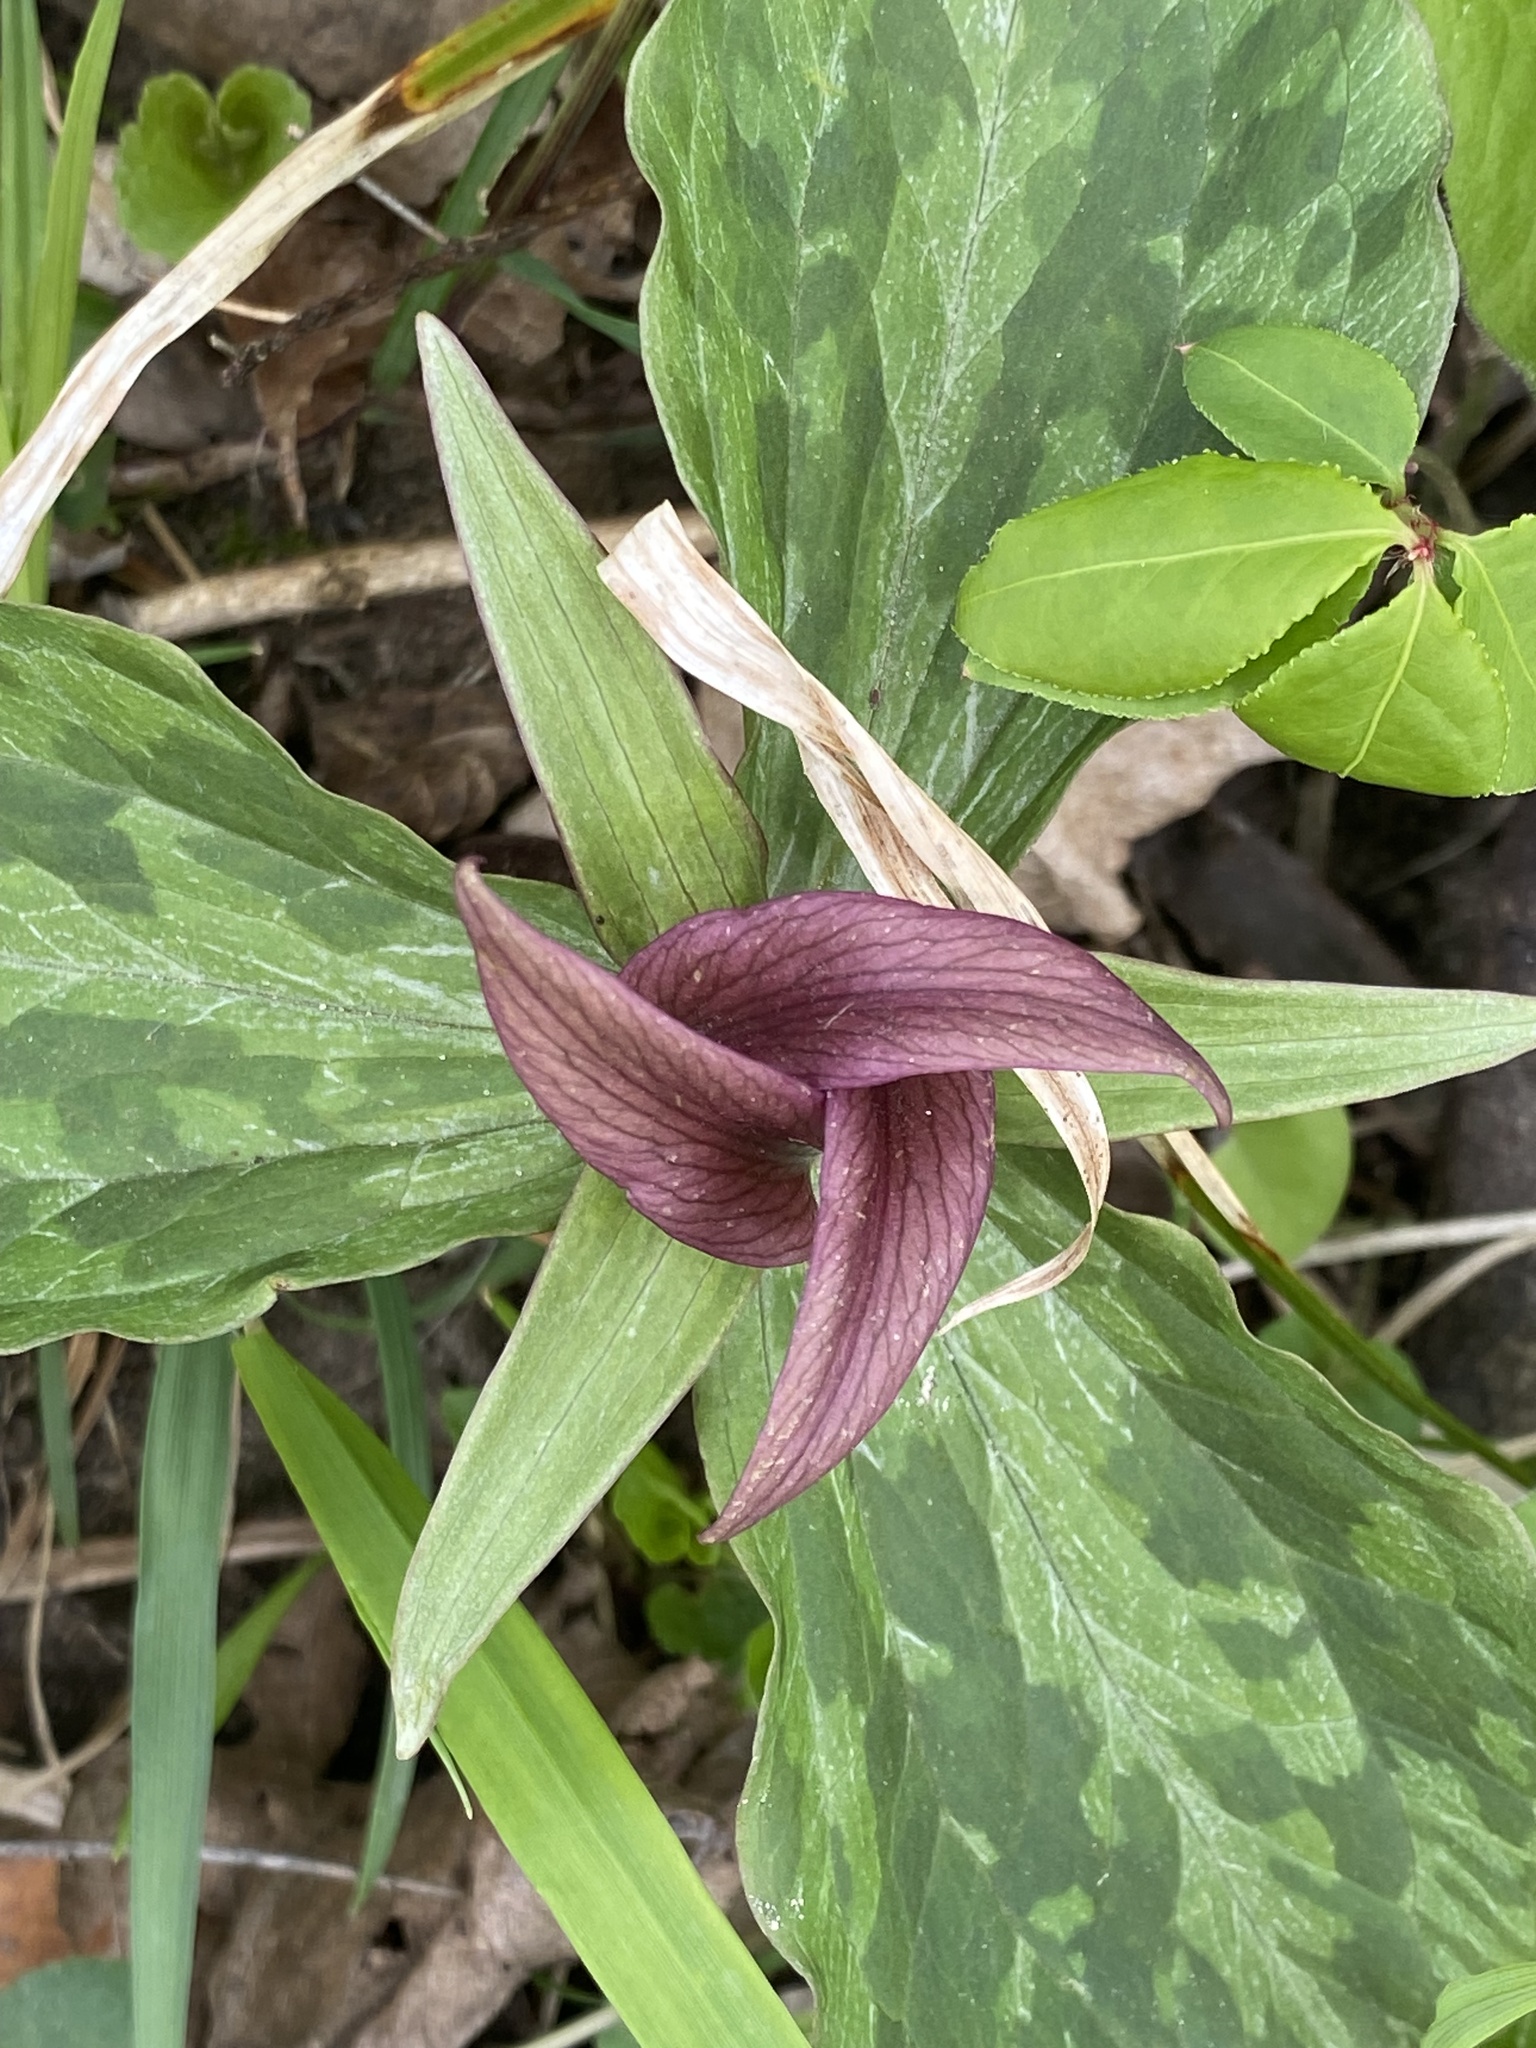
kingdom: Plantae
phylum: Tracheophyta
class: Liliopsida
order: Liliales
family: Melanthiaceae
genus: Trillium
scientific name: Trillium sessile
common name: Sessile trillium
